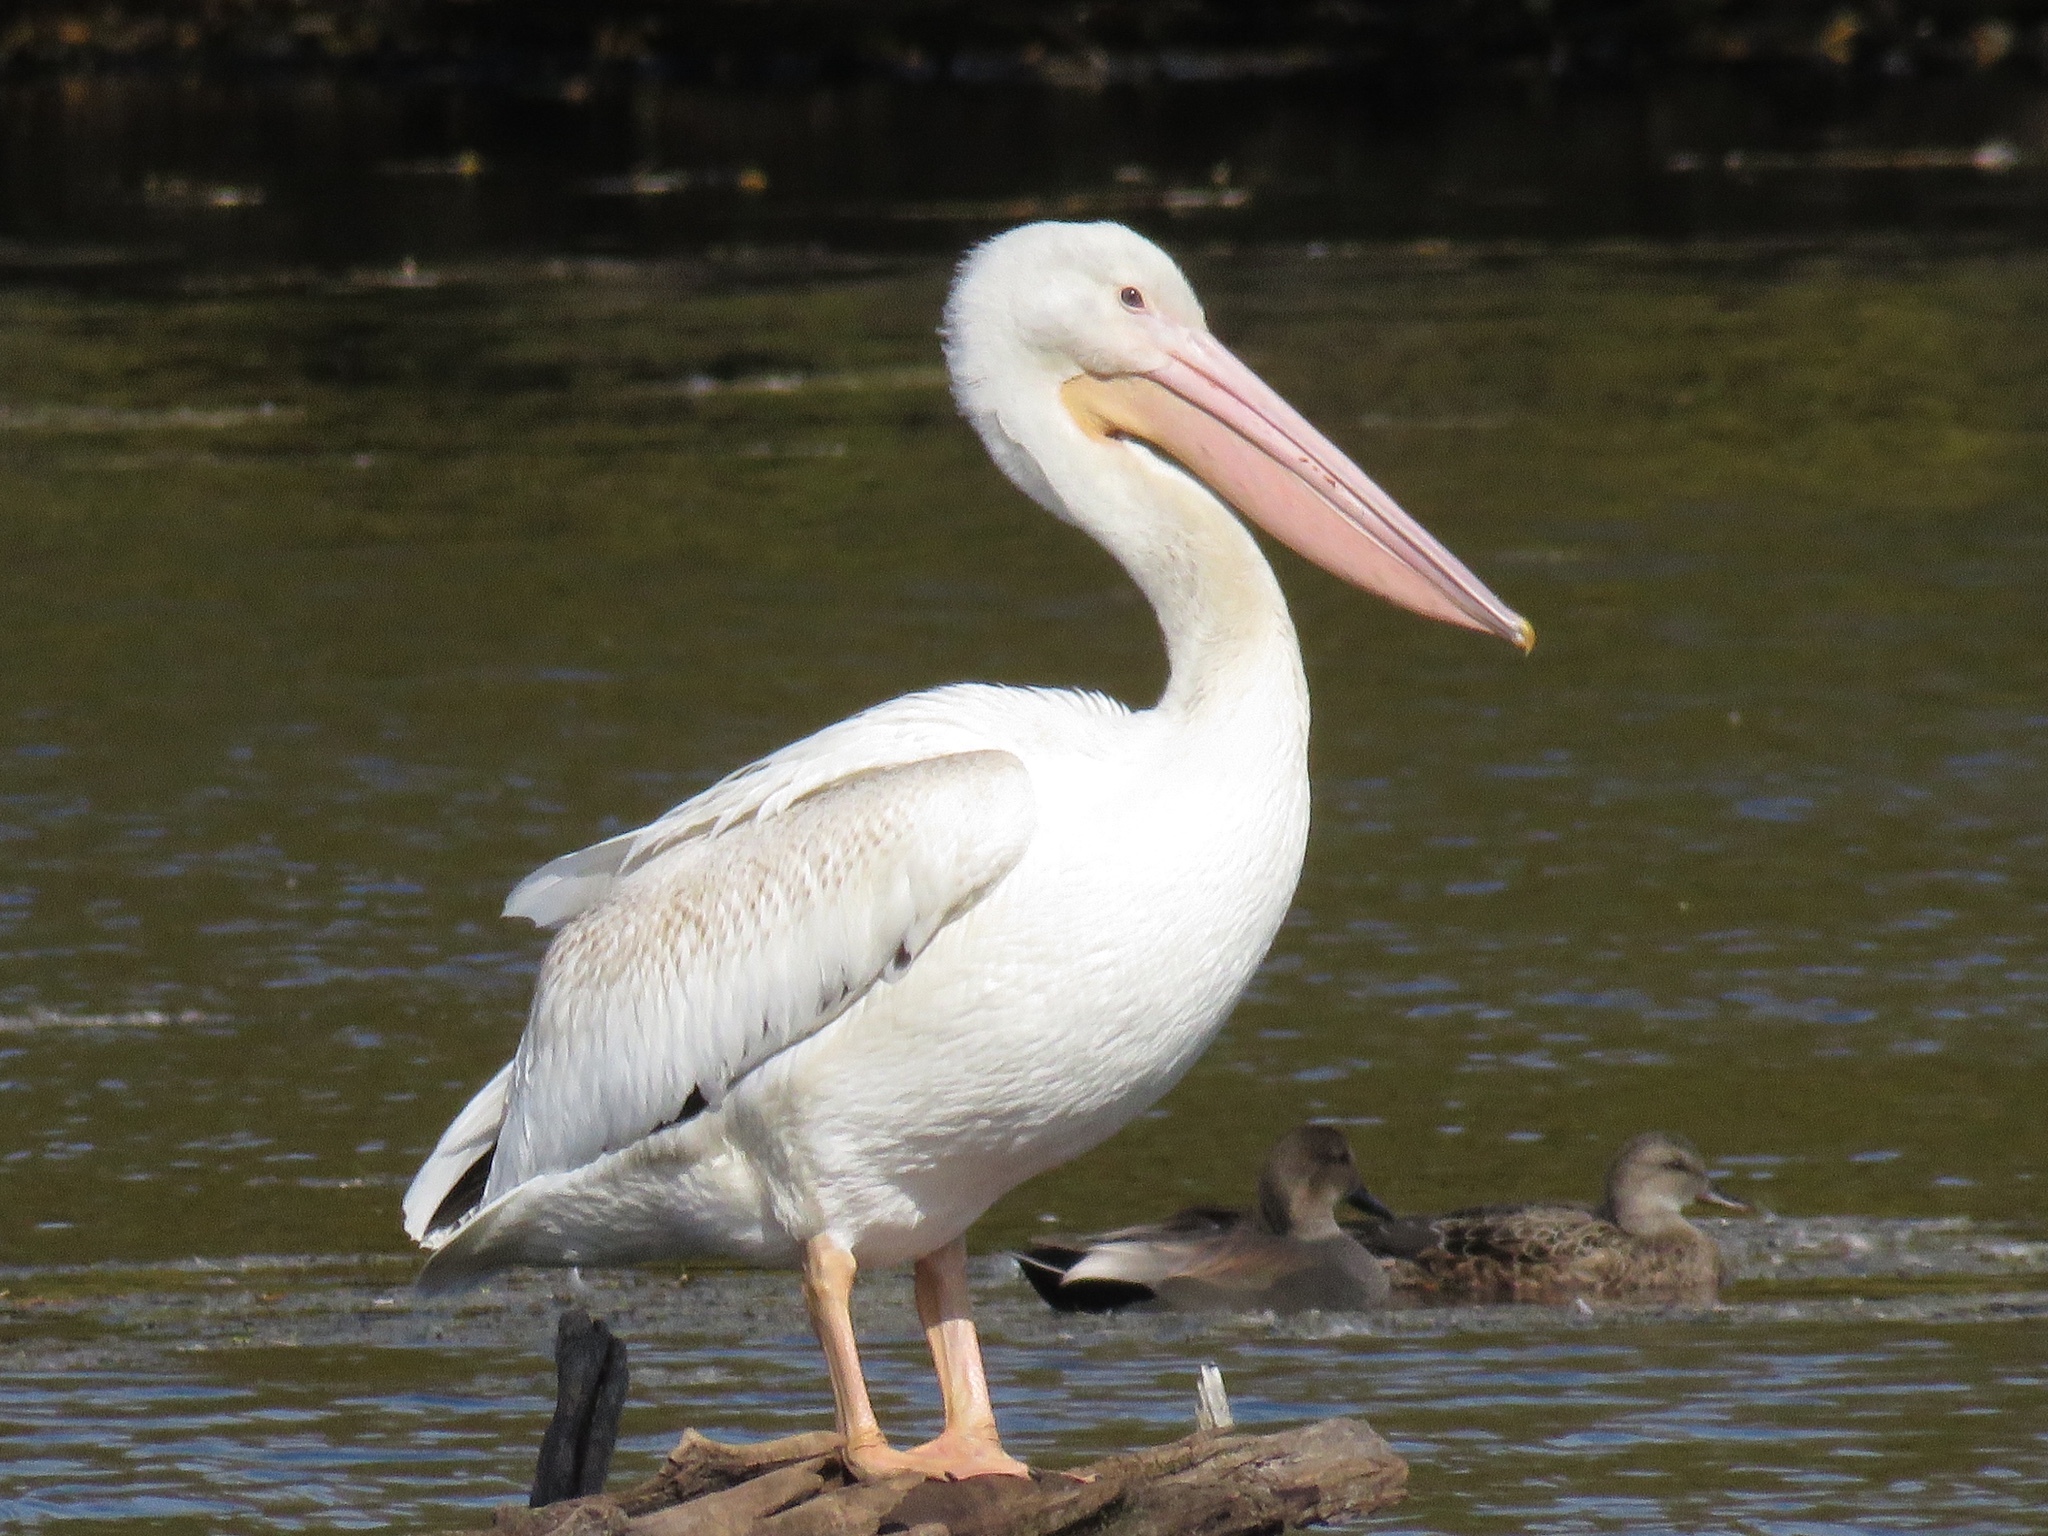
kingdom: Animalia
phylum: Chordata
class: Aves
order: Pelecaniformes
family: Pelecanidae
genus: Pelecanus
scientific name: Pelecanus erythrorhynchos
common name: American white pelican
